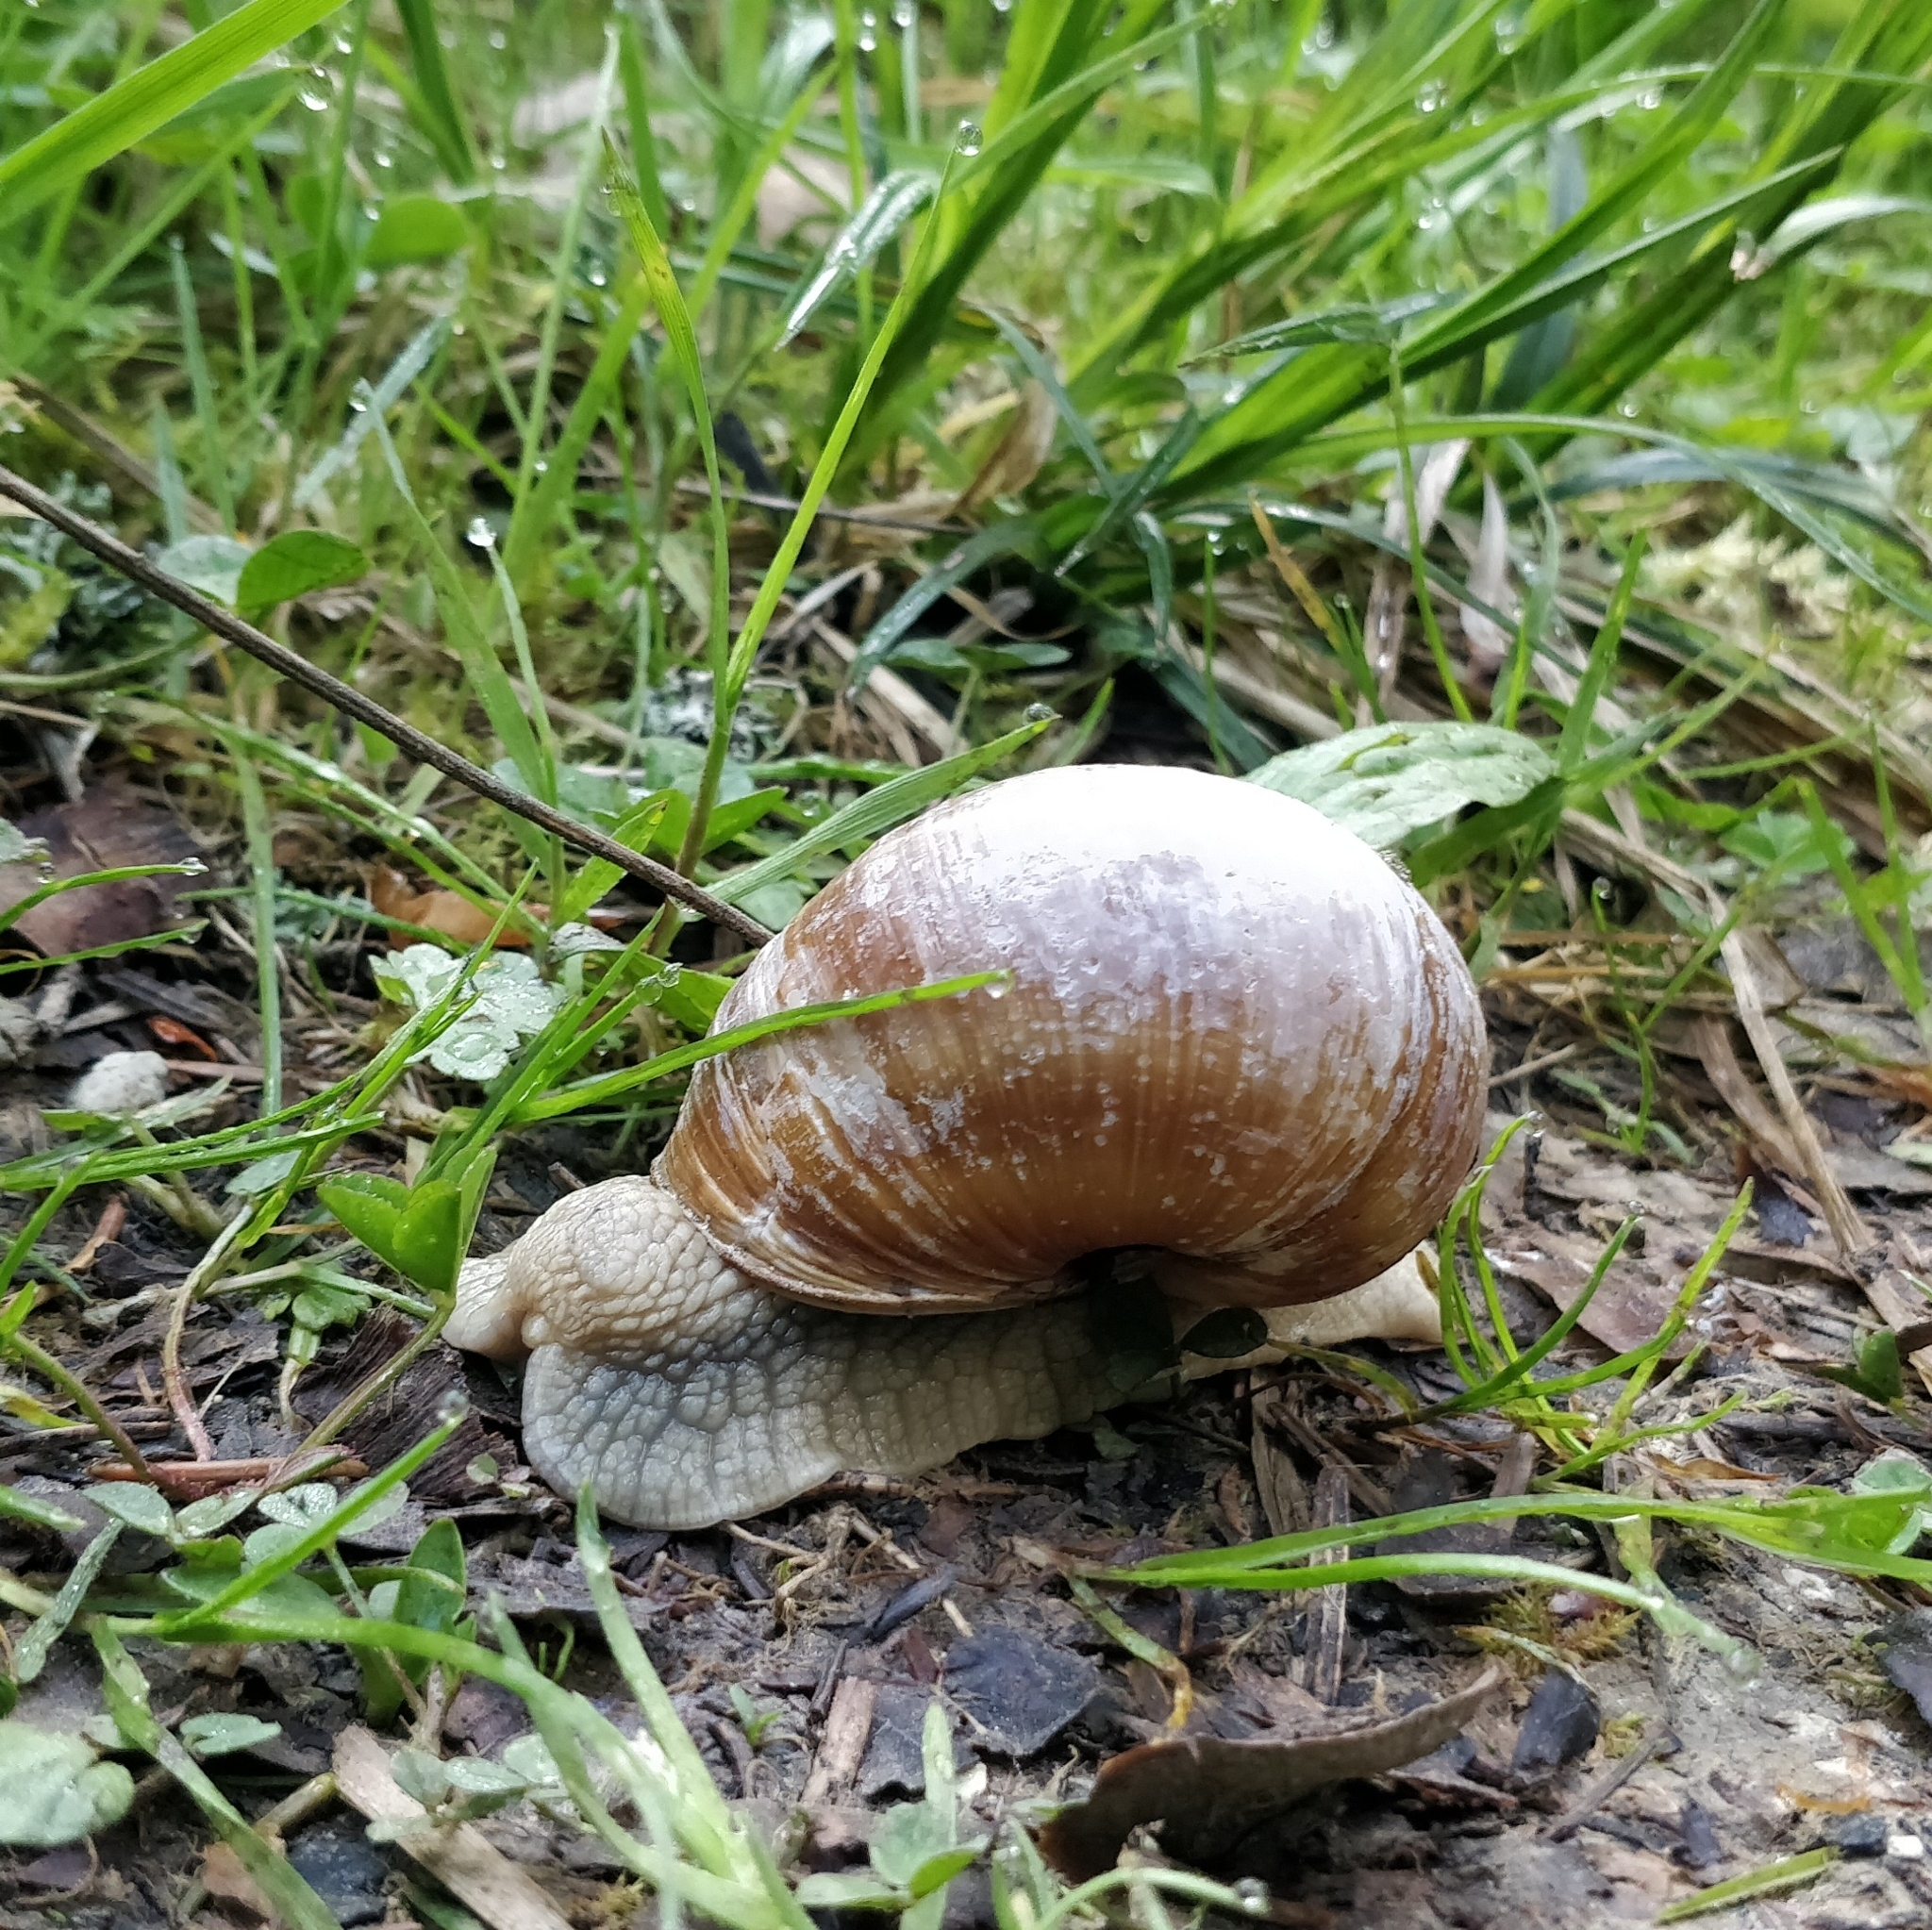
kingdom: Animalia
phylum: Mollusca
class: Gastropoda
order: Stylommatophora
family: Helicidae
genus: Helix
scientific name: Helix pomatia
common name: Roman snail
